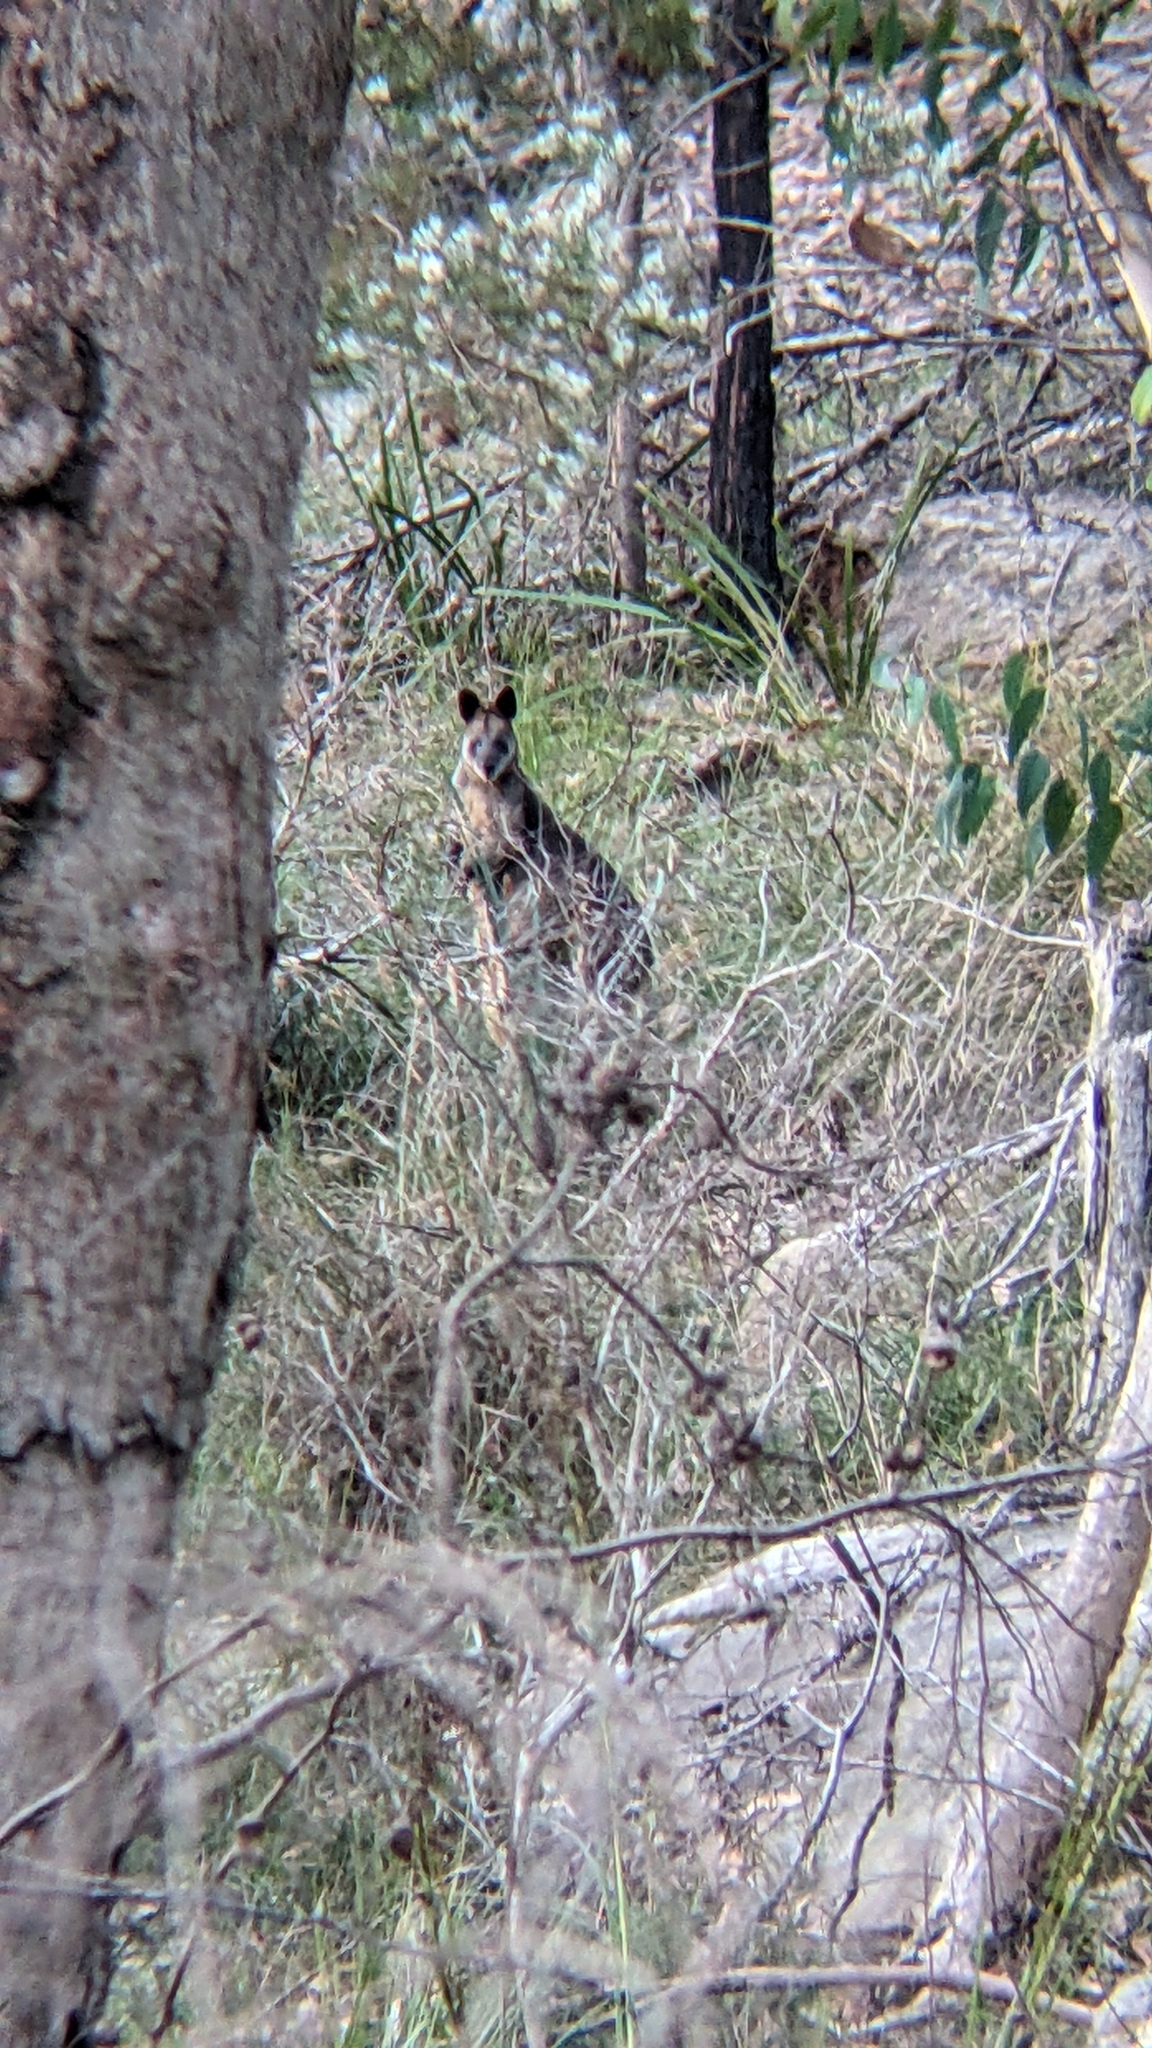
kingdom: Animalia
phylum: Chordata
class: Mammalia
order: Diprotodontia
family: Macropodidae
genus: Wallabia
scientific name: Wallabia bicolor
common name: Swamp wallaby
